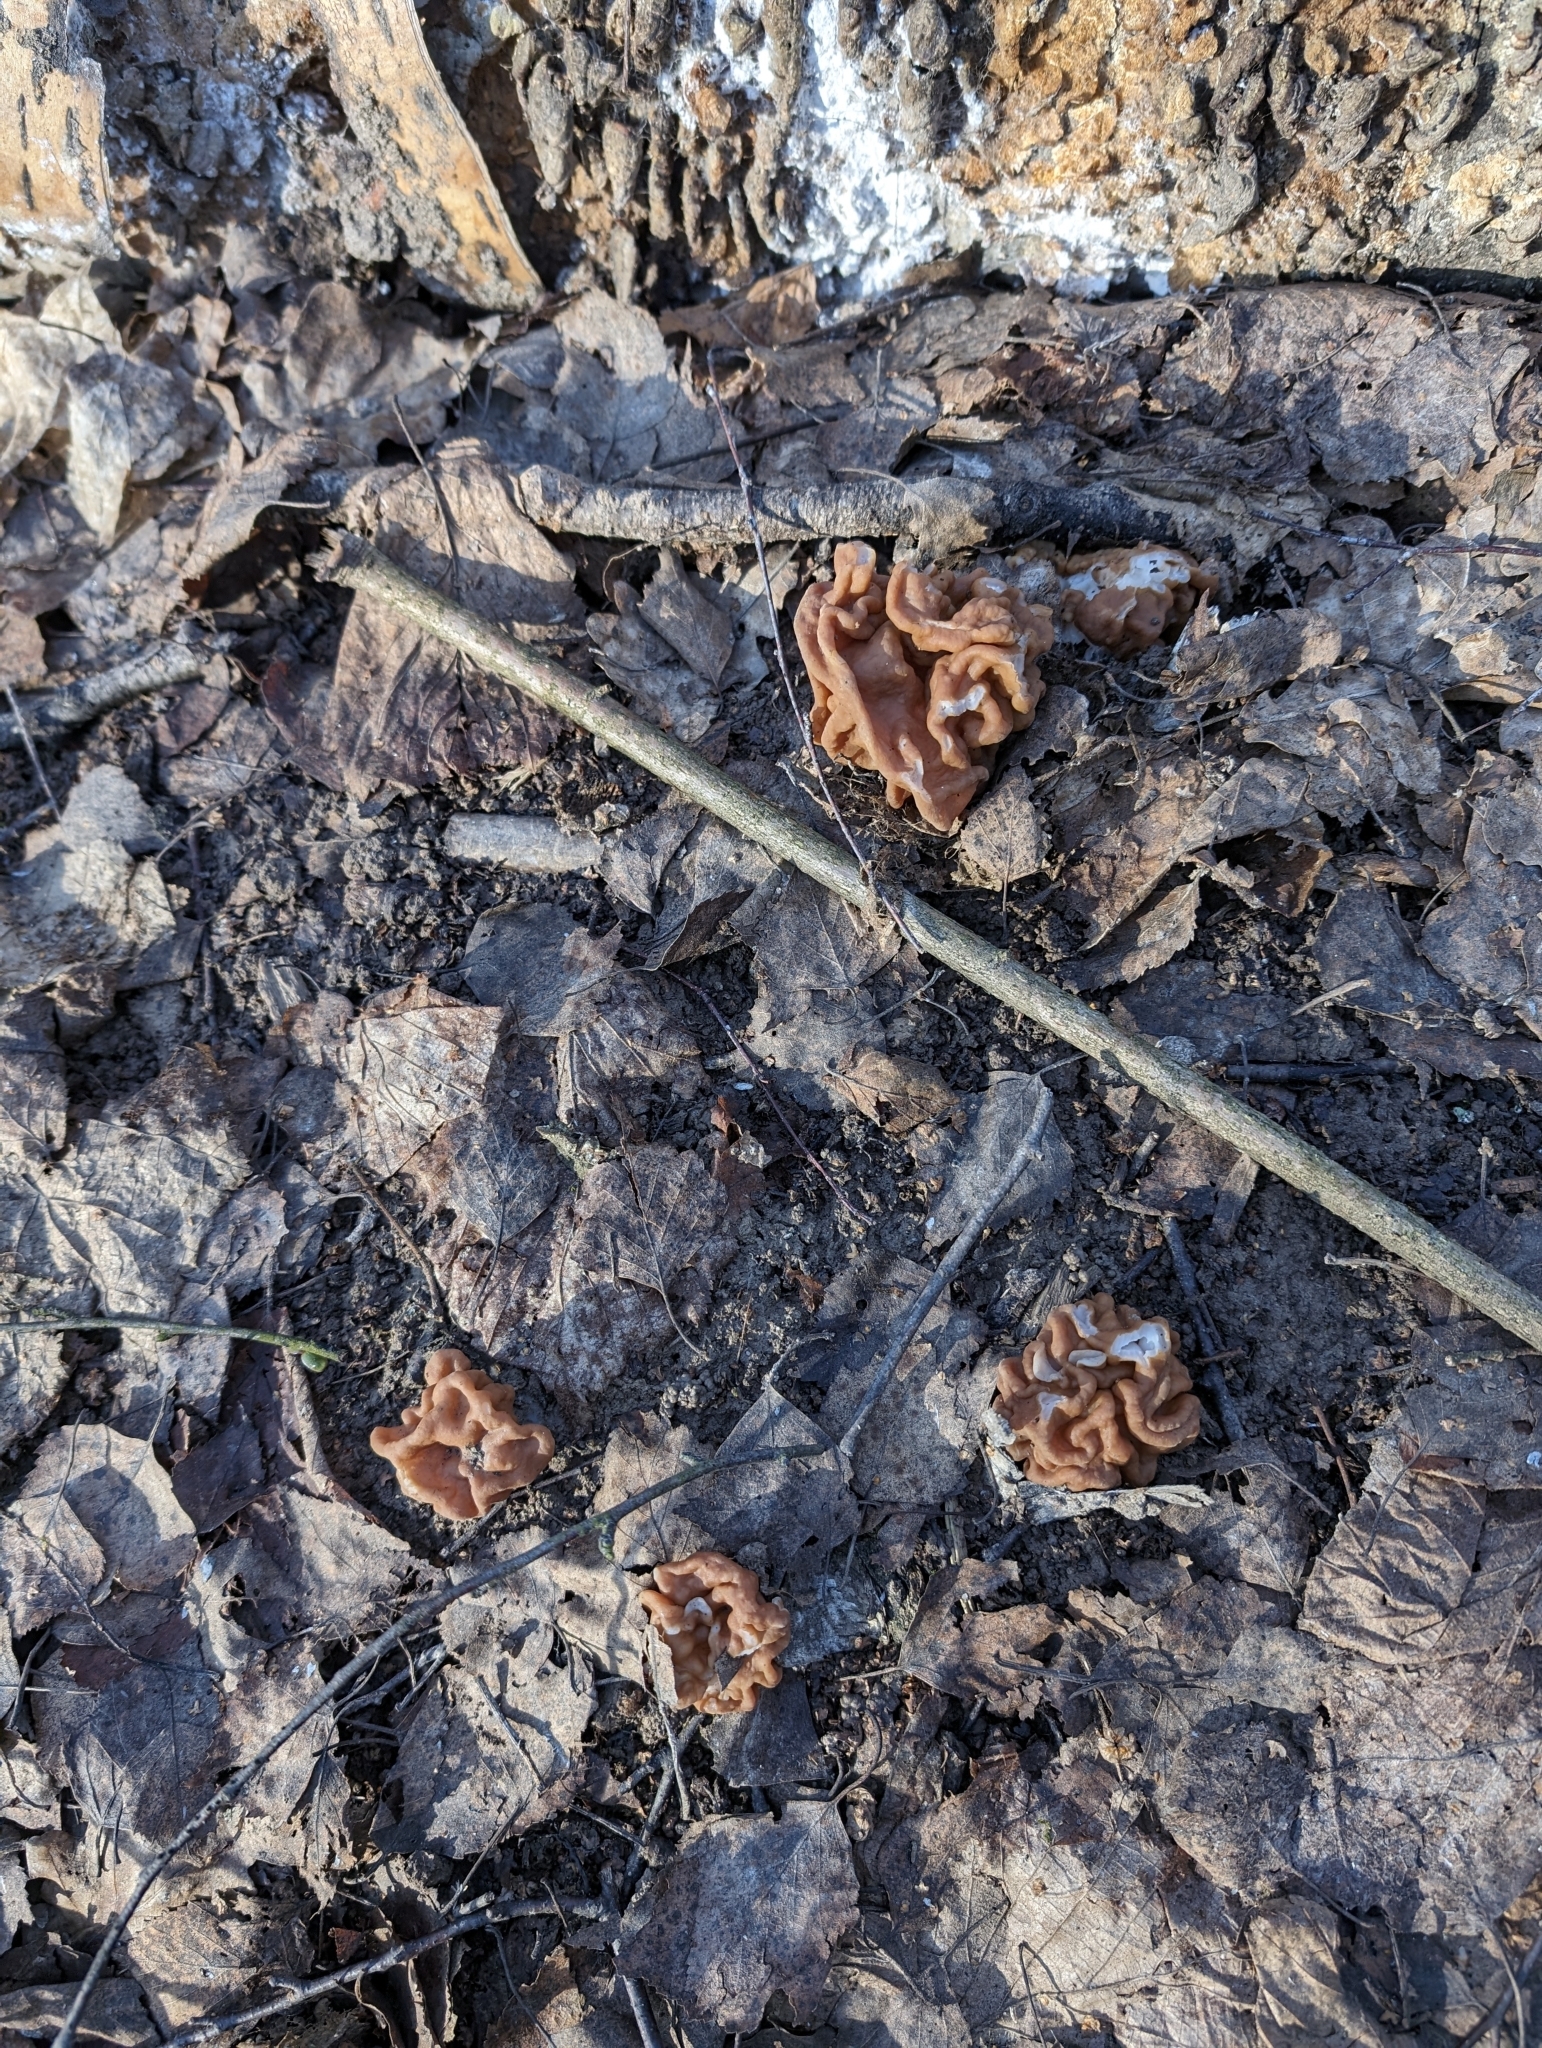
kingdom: Fungi
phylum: Ascomycota
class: Pezizomycetes
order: Pezizales
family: Discinaceae
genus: Gyromitra
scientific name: Gyromitra gigas
